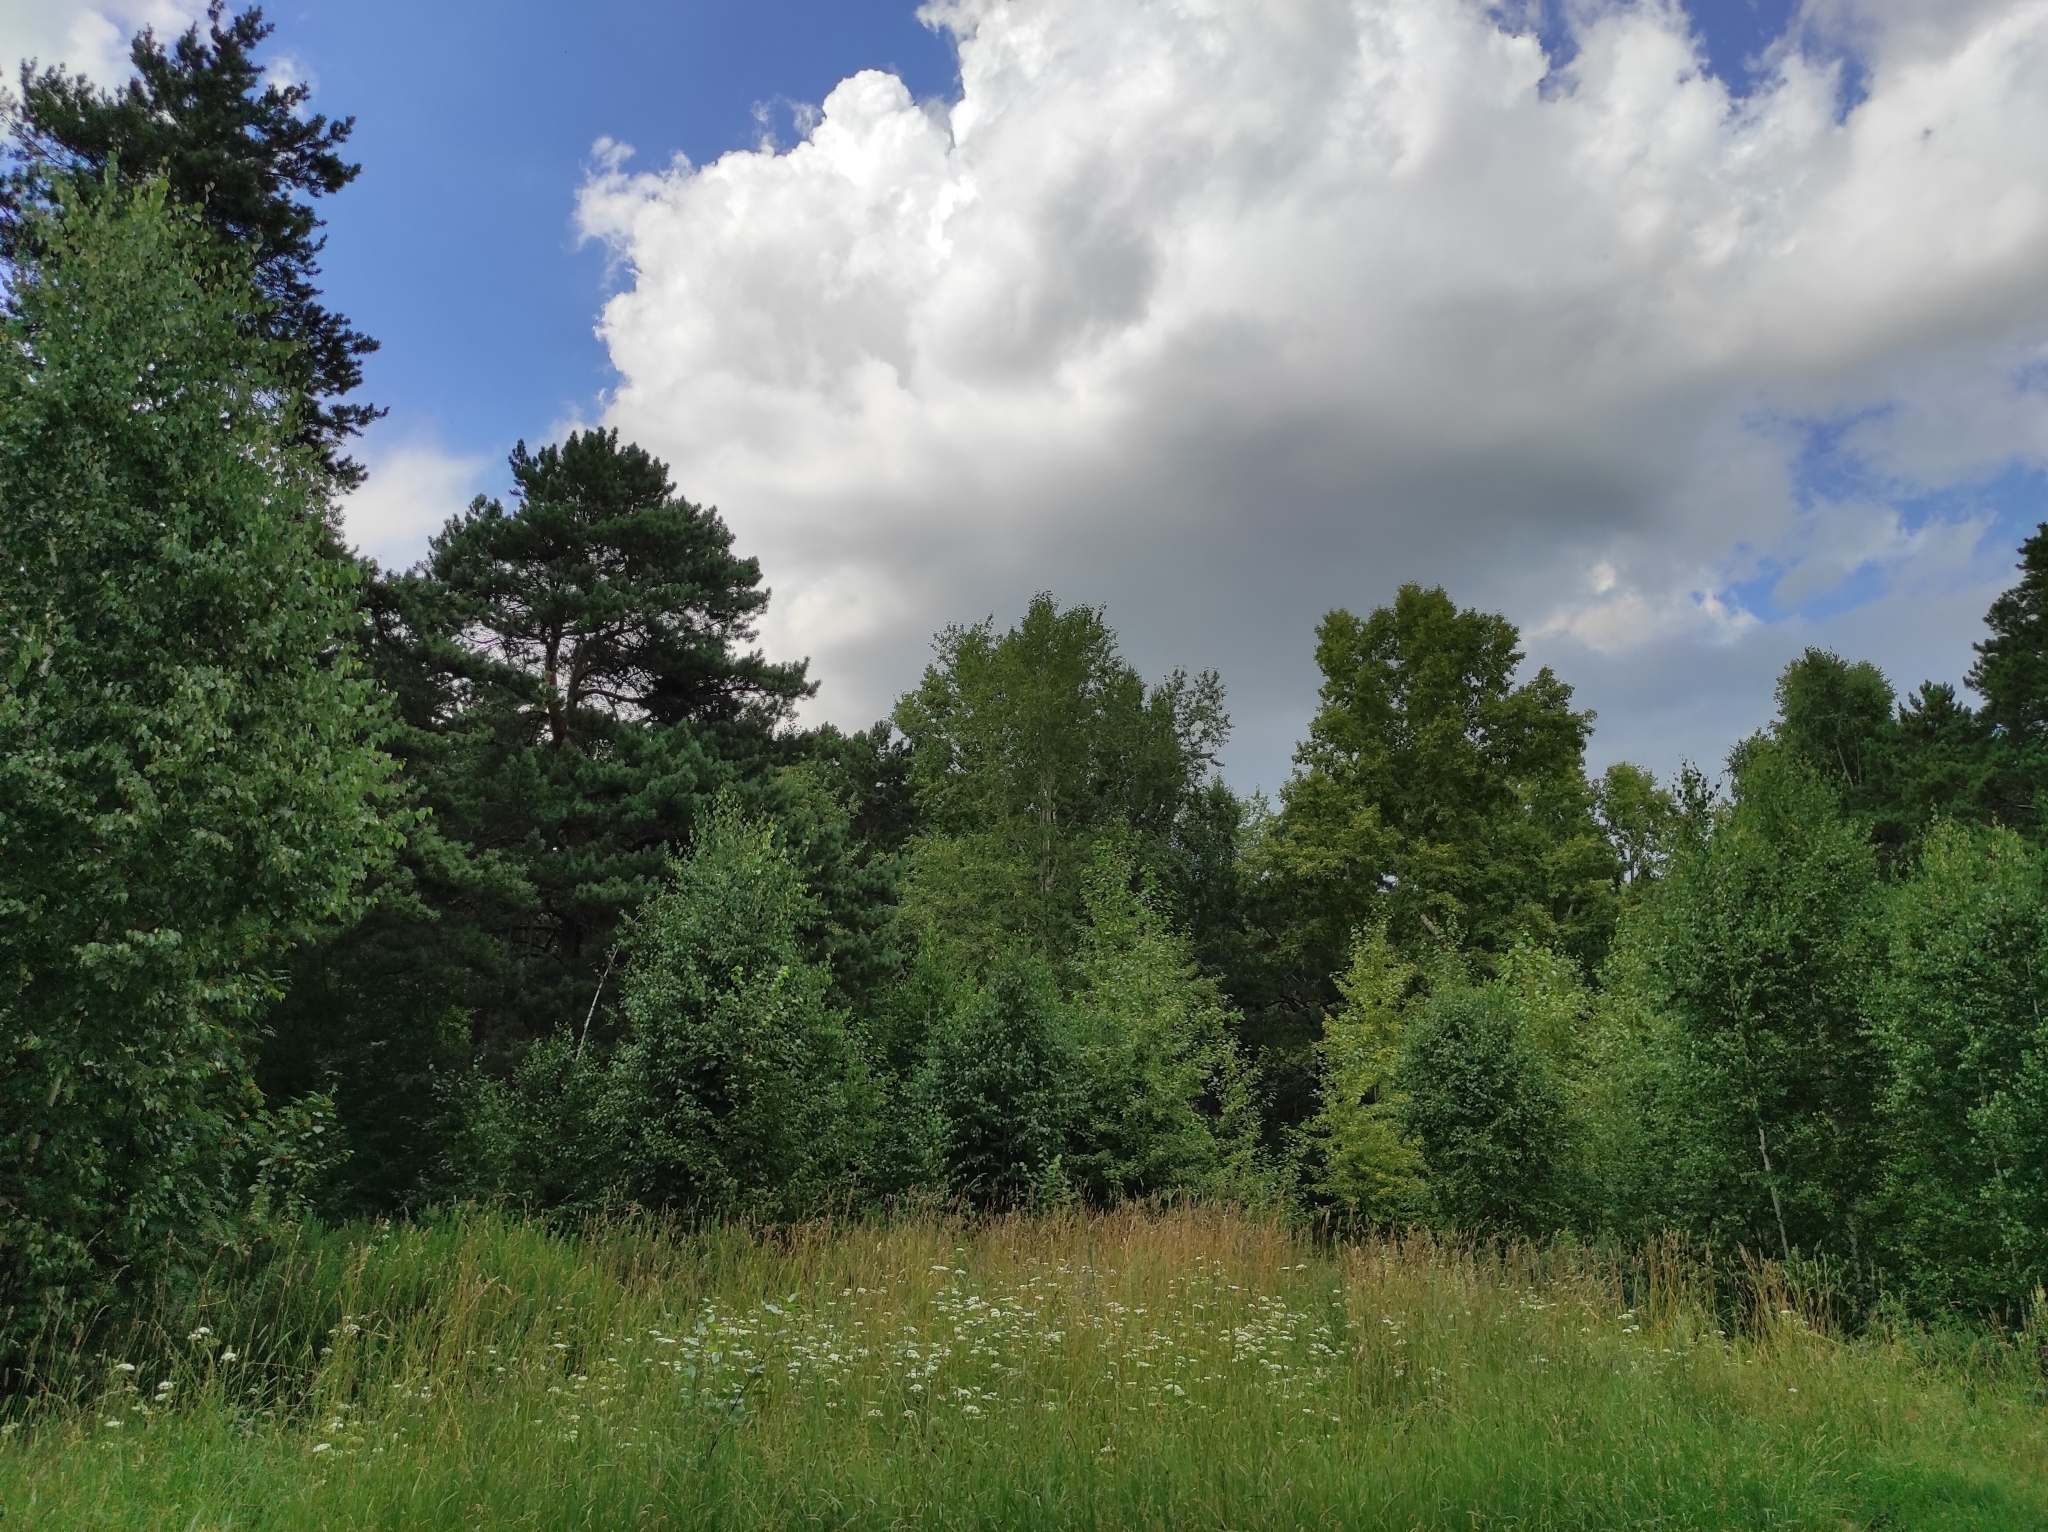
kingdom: Plantae
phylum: Tracheophyta
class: Pinopsida
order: Pinales
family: Pinaceae
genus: Pinus
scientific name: Pinus sylvestris
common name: Scots pine
